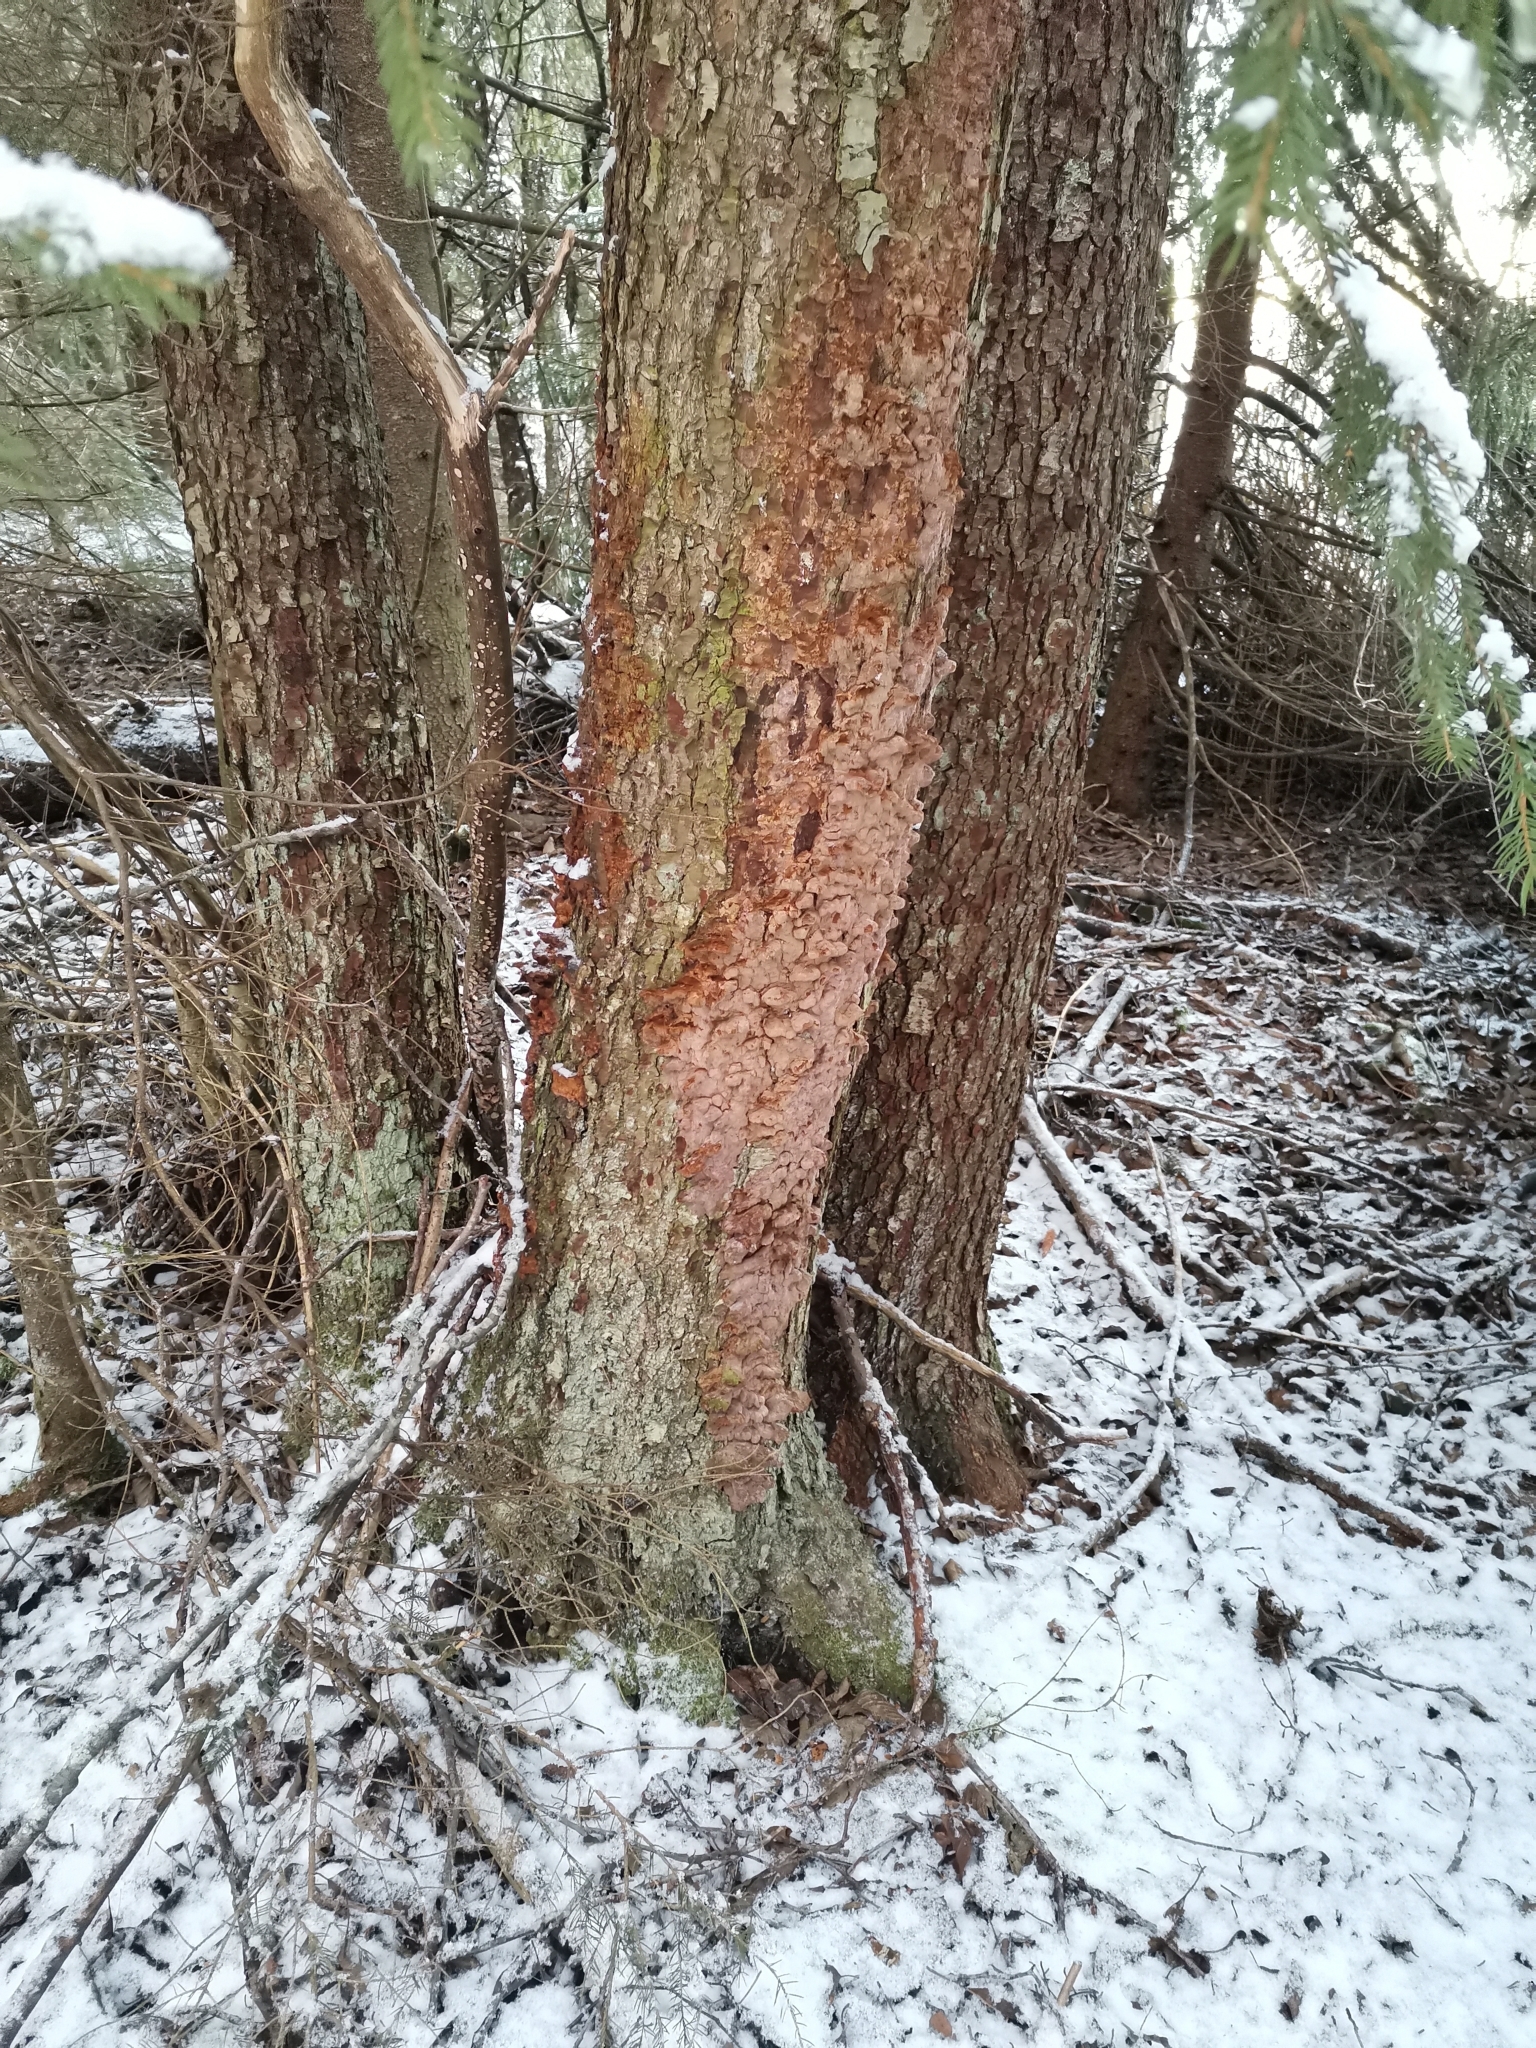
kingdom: Fungi
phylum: Basidiomycota
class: Agaricomycetes
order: Hymenochaetales
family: Hymenochaetaceae
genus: Xanthoporia
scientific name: Xanthoporia radiata
